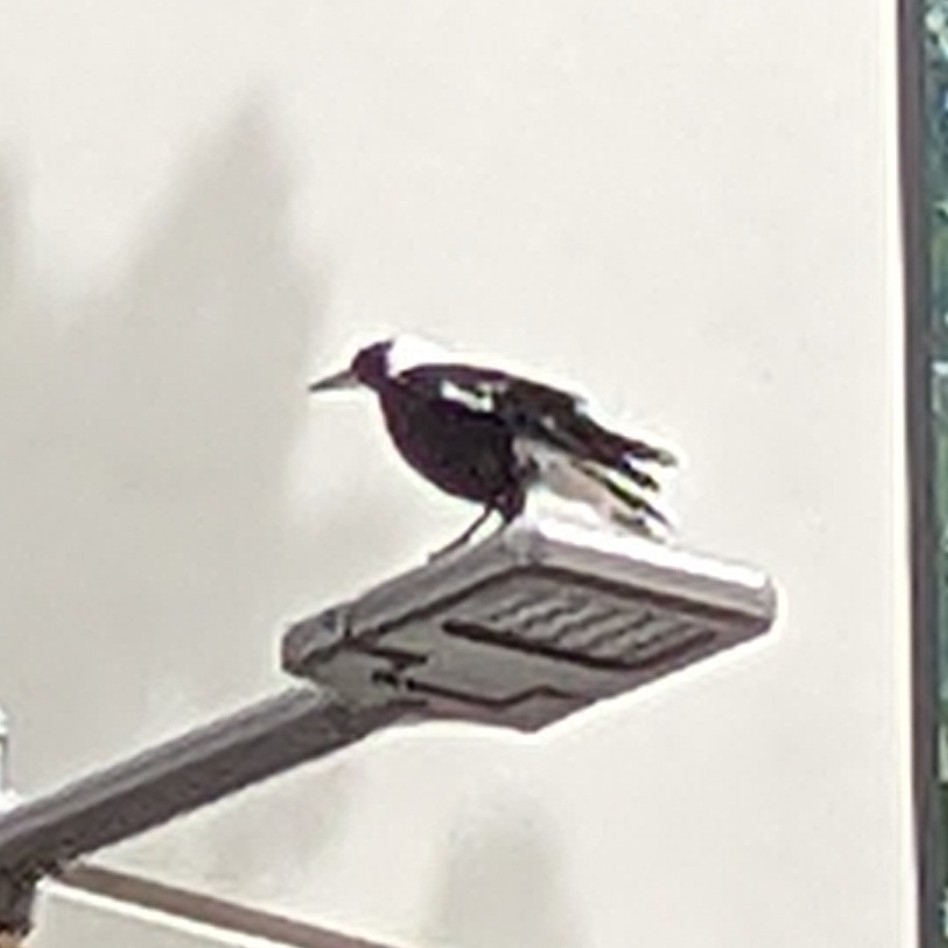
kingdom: Animalia
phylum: Chordata
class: Aves
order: Passeriformes
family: Cracticidae
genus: Gymnorhina
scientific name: Gymnorhina tibicen
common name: Australian magpie
